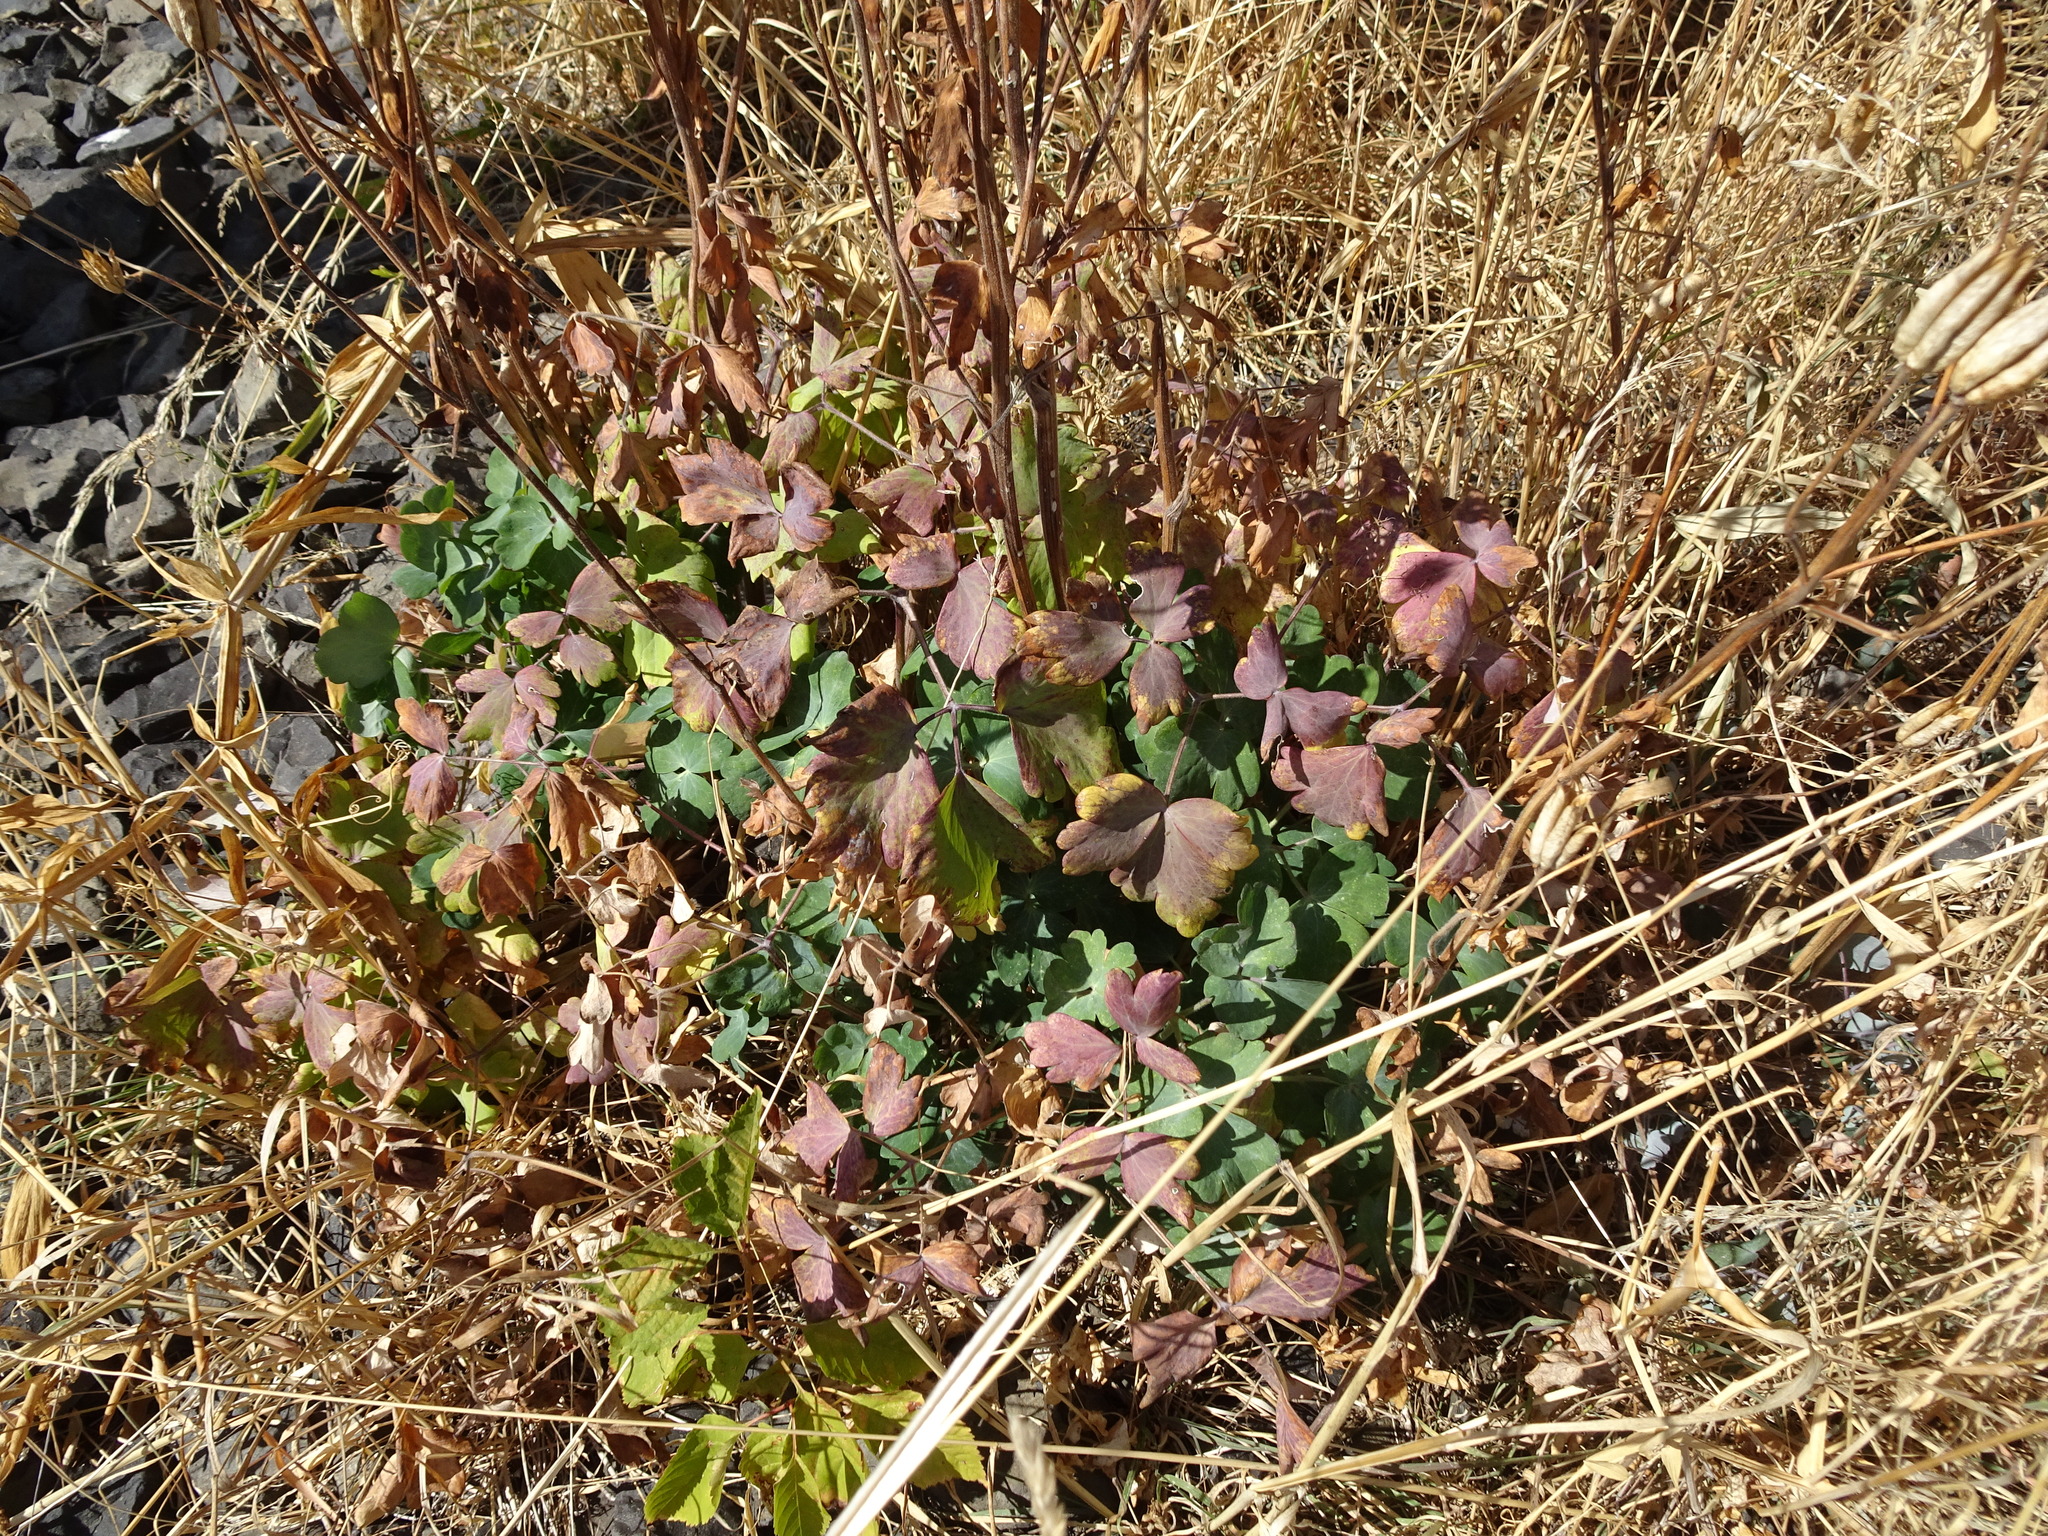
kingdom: Plantae
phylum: Tracheophyta
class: Magnoliopsida
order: Ranunculales
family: Ranunculaceae
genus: Aquilegia
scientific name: Aquilegia vulgaris
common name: Columbine
